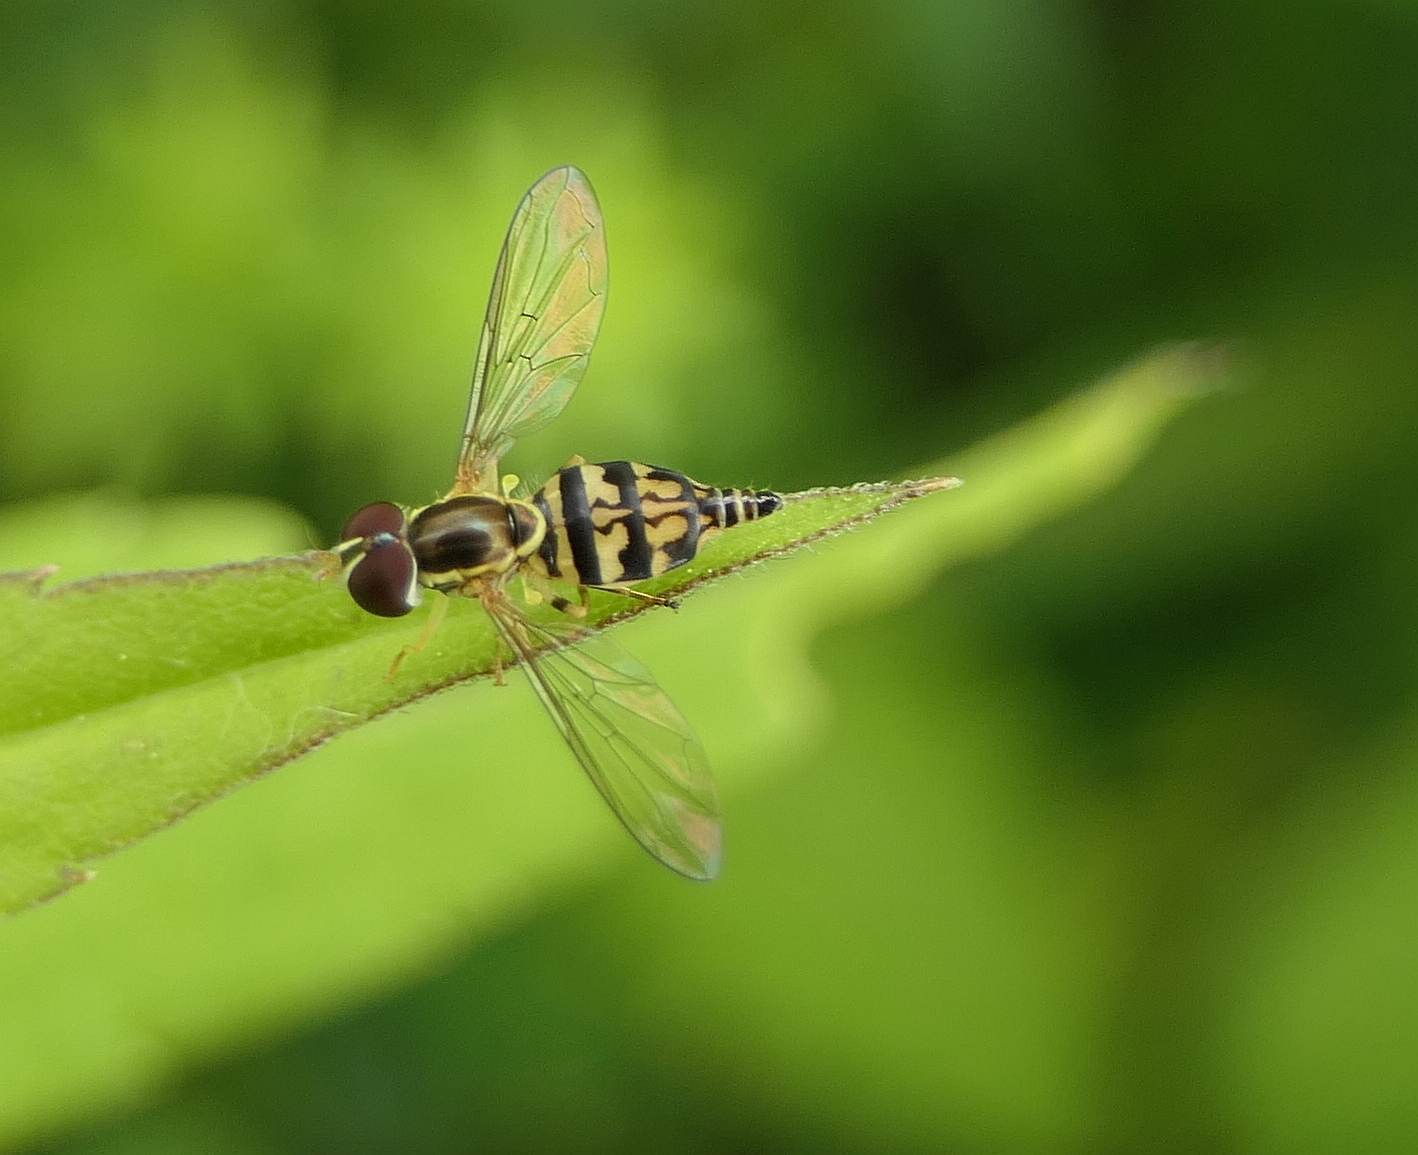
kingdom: Animalia
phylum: Arthropoda
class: Insecta
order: Diptera
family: Syrphidae
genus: Toxomerus
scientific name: Toxomerus geminatus
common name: Eastern calligrapher
